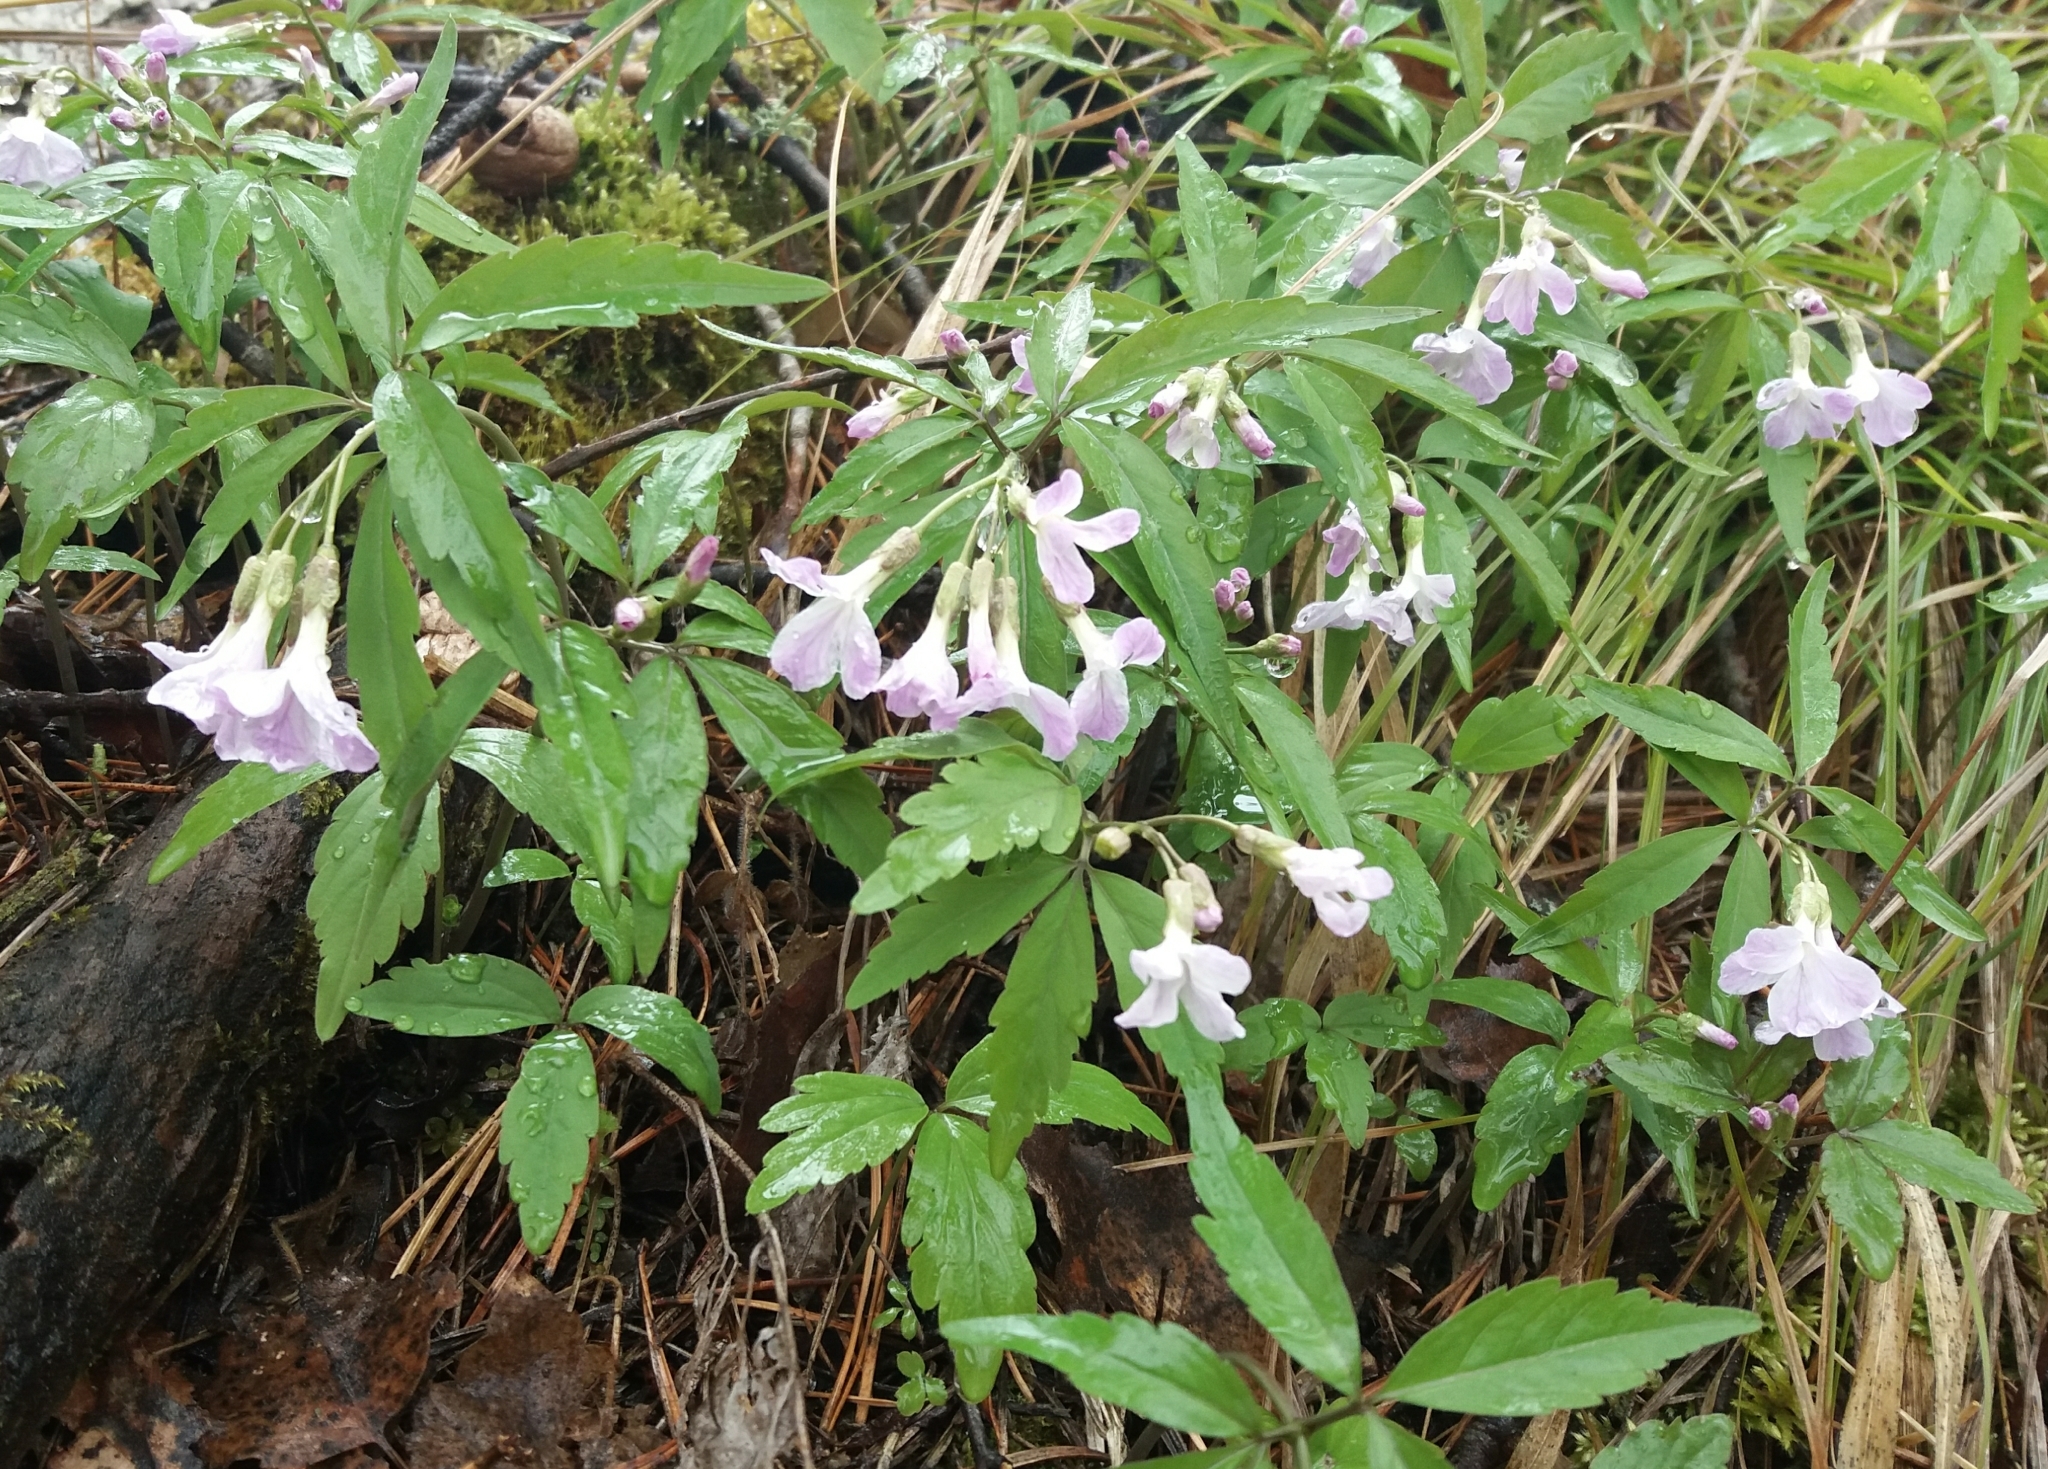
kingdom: Plantae
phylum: Tracheophyta
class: Magnoliopsida
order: Brassicales
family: Brassicaceae
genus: Cardamine
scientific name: Cardamine altaica
